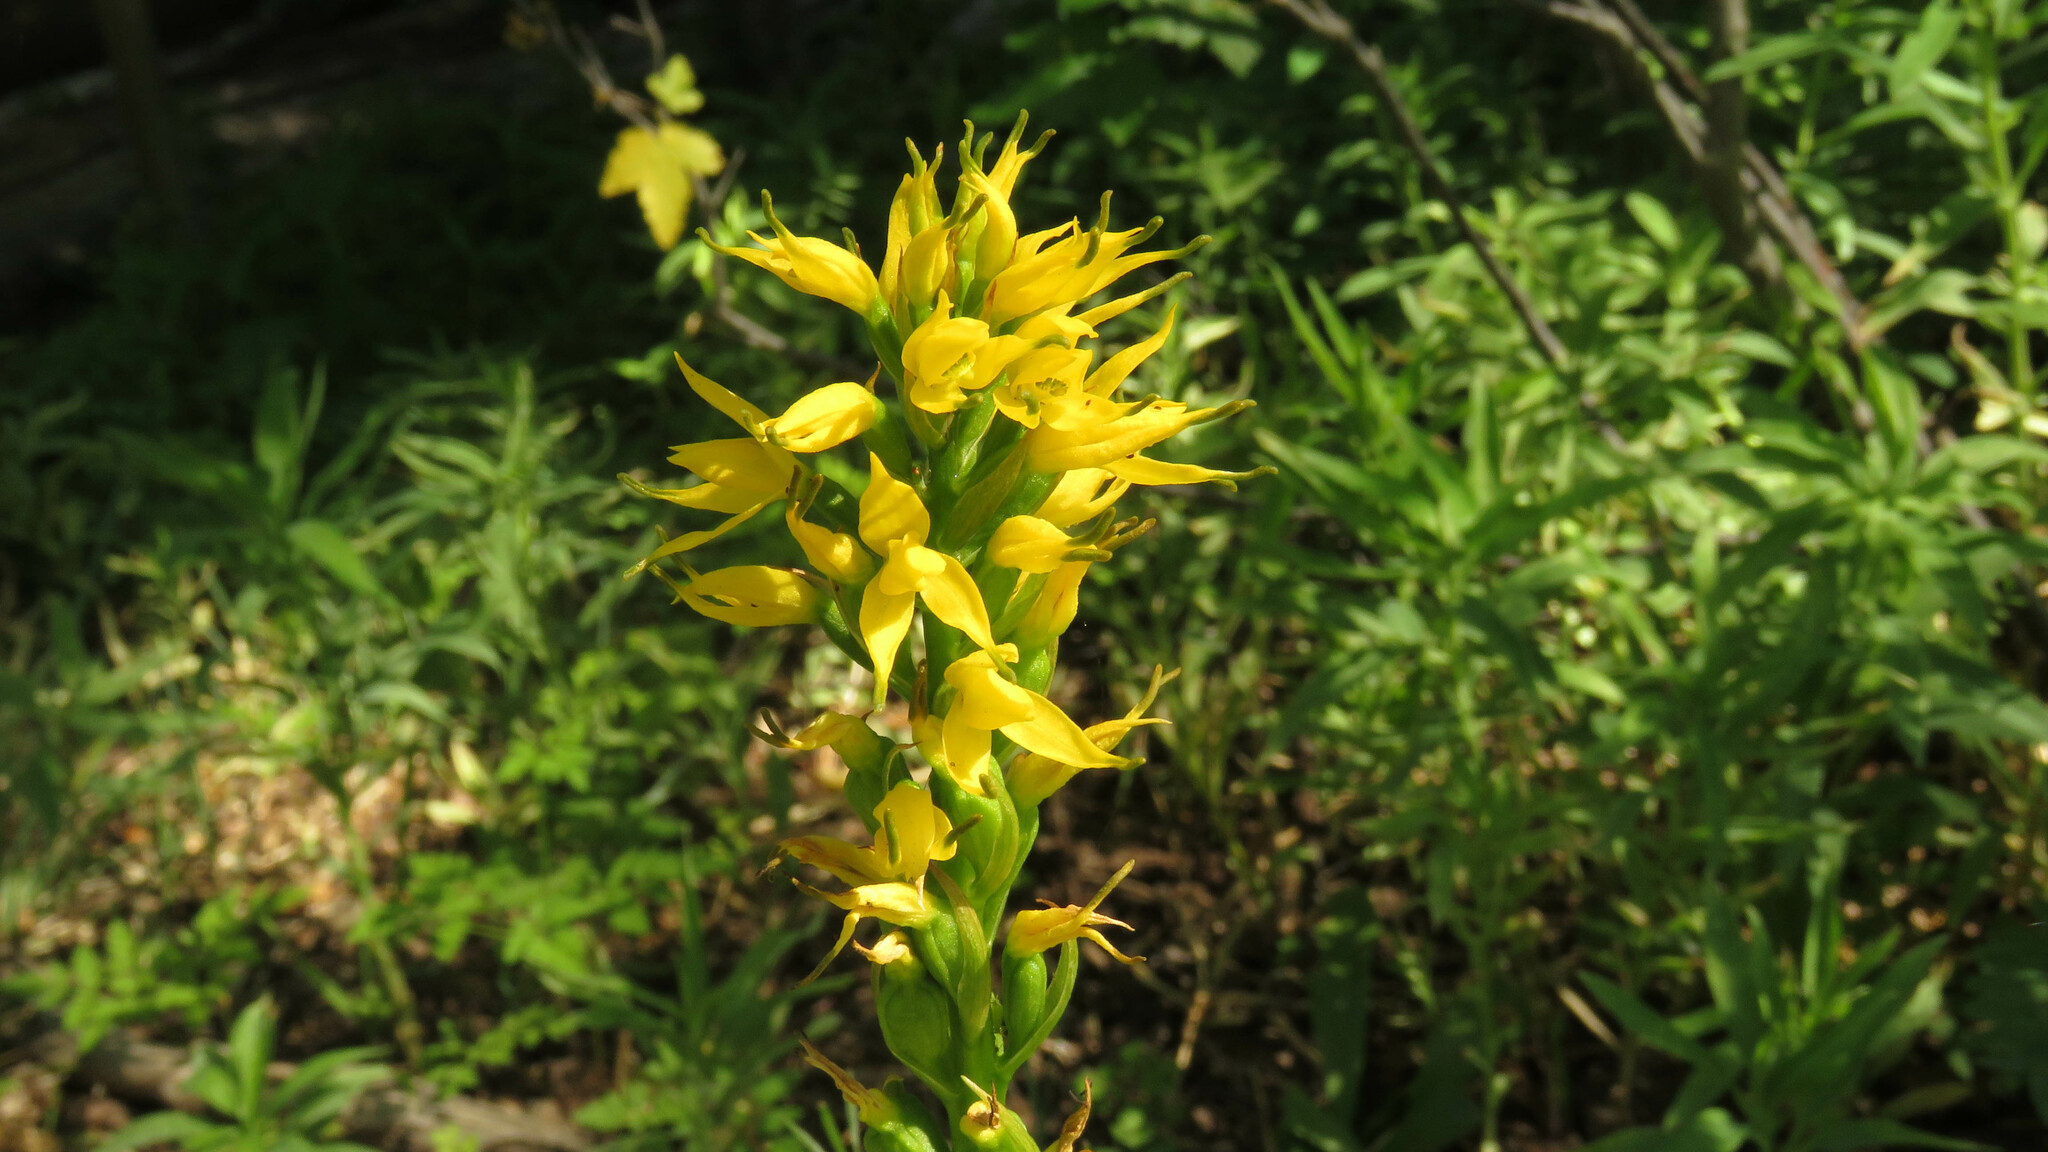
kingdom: Plantae
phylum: Tracheophyta
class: Liliopsida
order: Asparagales
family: Orchidaceae
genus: Gavilea
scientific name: Gavilea lutea
